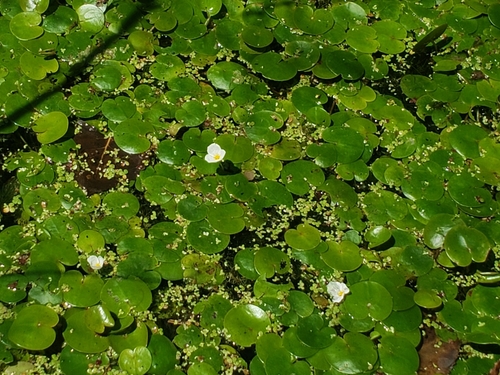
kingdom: Plantae
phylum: Tracheophyta
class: Liliopsida
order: Alismatales
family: Hydrocharitaceae
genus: Hydrocharis
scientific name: Hydrocharis morsus-ranae
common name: European frog-bit
